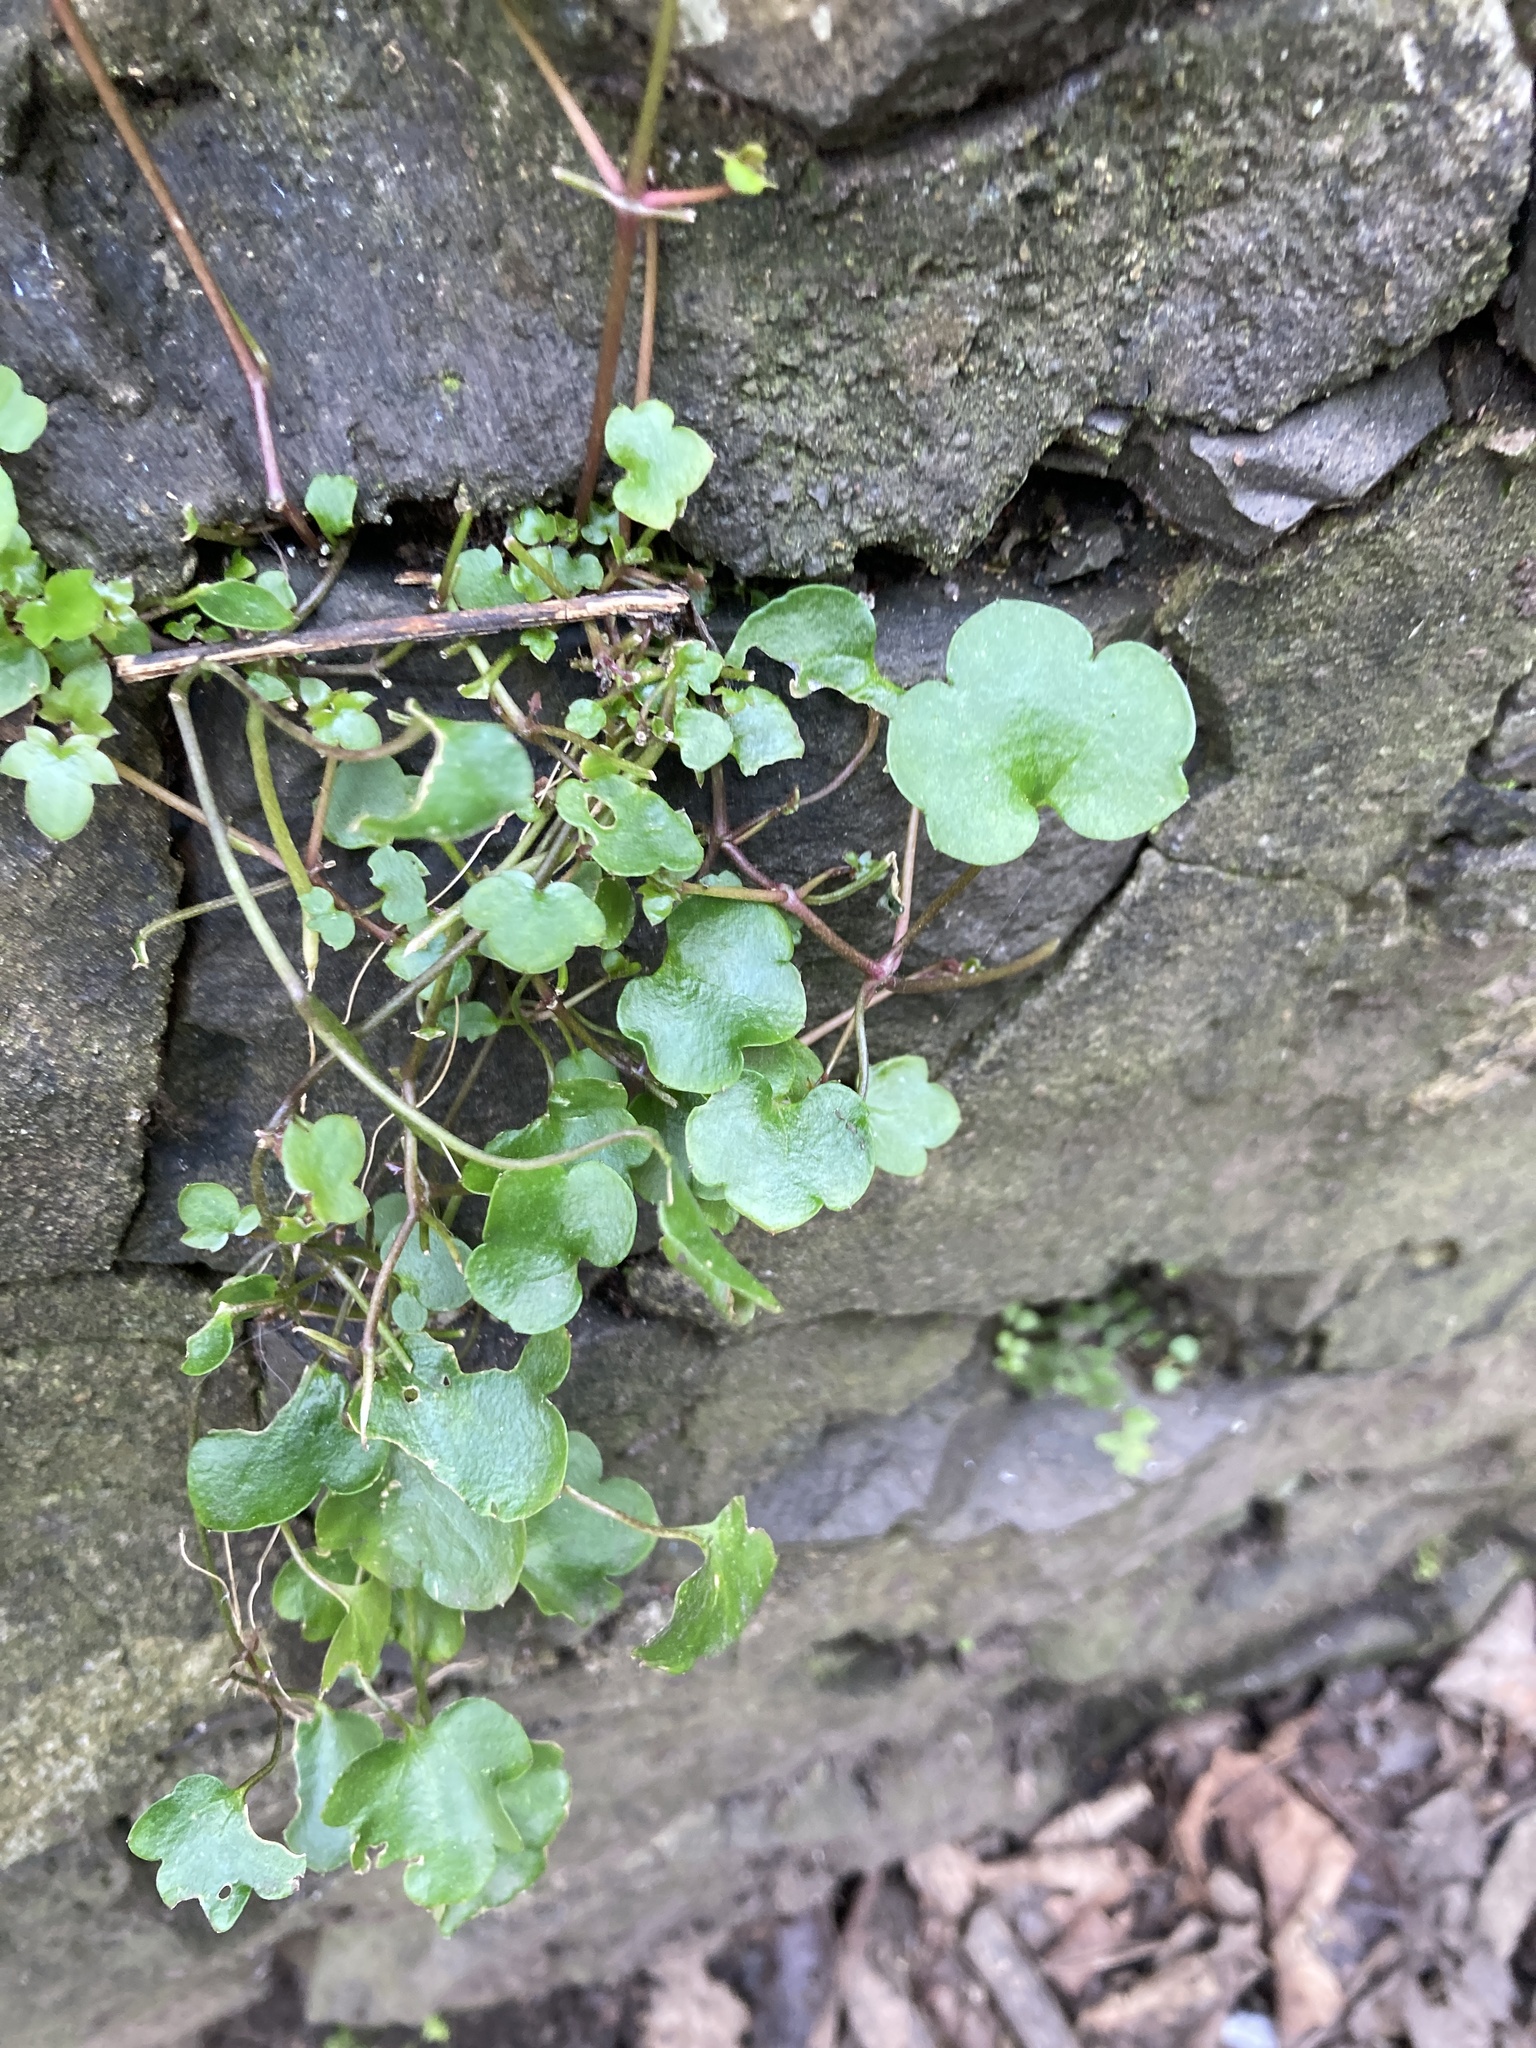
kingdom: Plantae
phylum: Tracheophyta
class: Magnoliopsida
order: Lamiales
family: Plantaginaceae
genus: Cymbalaria
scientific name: Cymbalaria muralis
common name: Ivy-leaved toadflax
